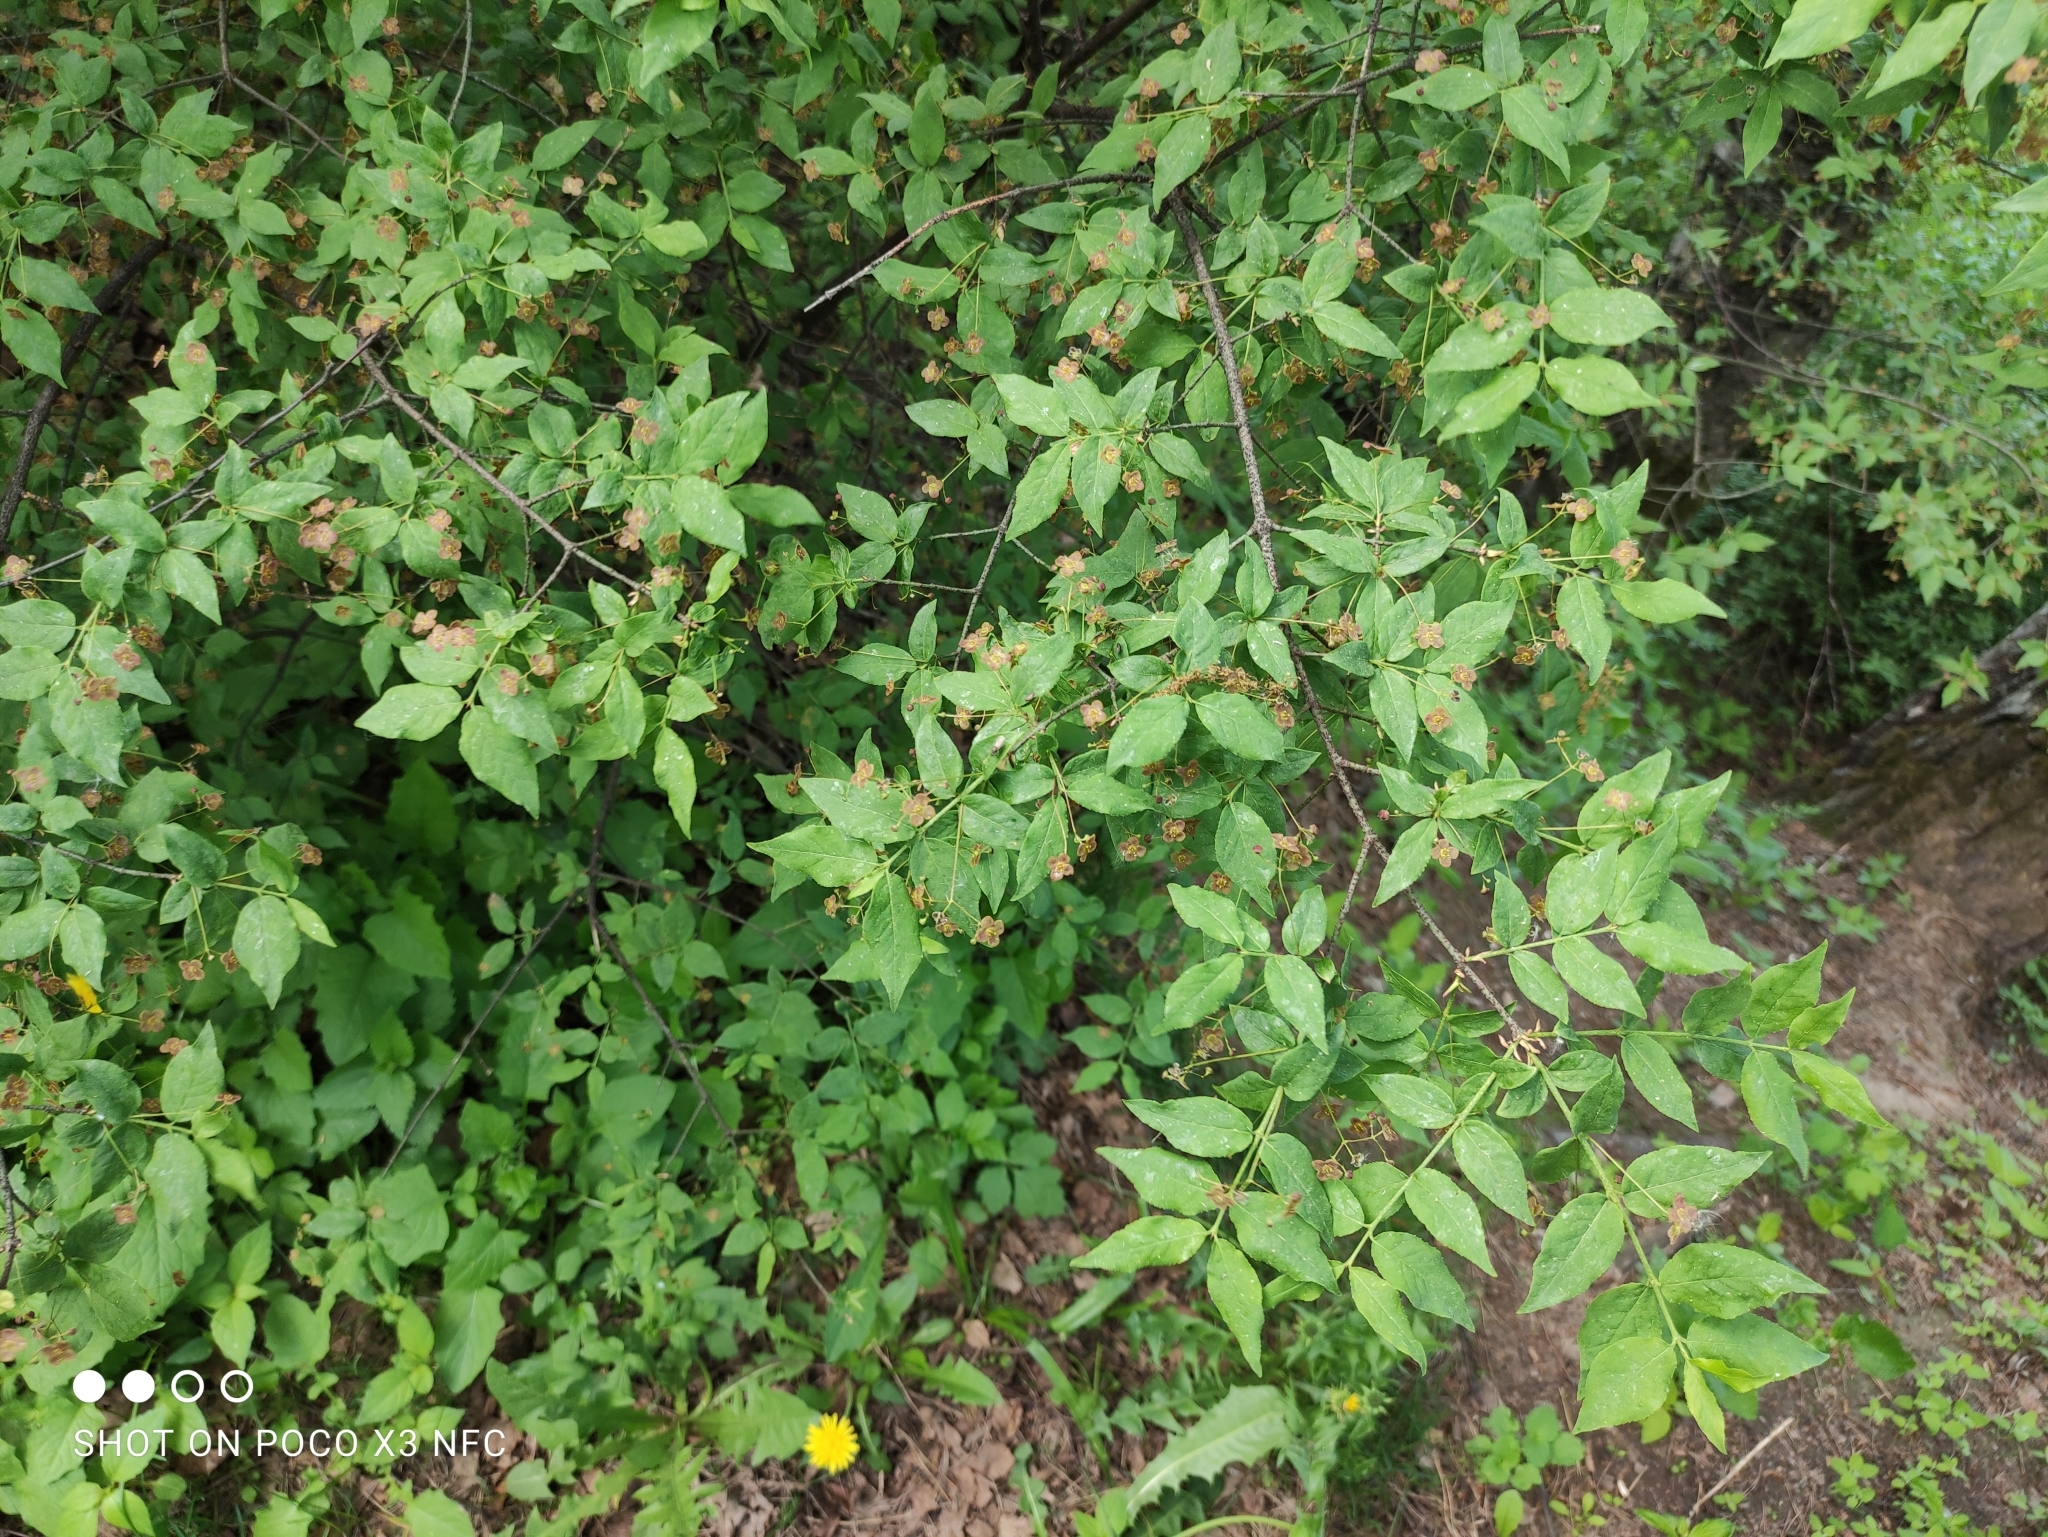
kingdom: Plantae
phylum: Tracheophyta
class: Magnoliopsida
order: Celastrales
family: Celastraceae
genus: Euonymus
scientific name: Euonymus verrucosus
